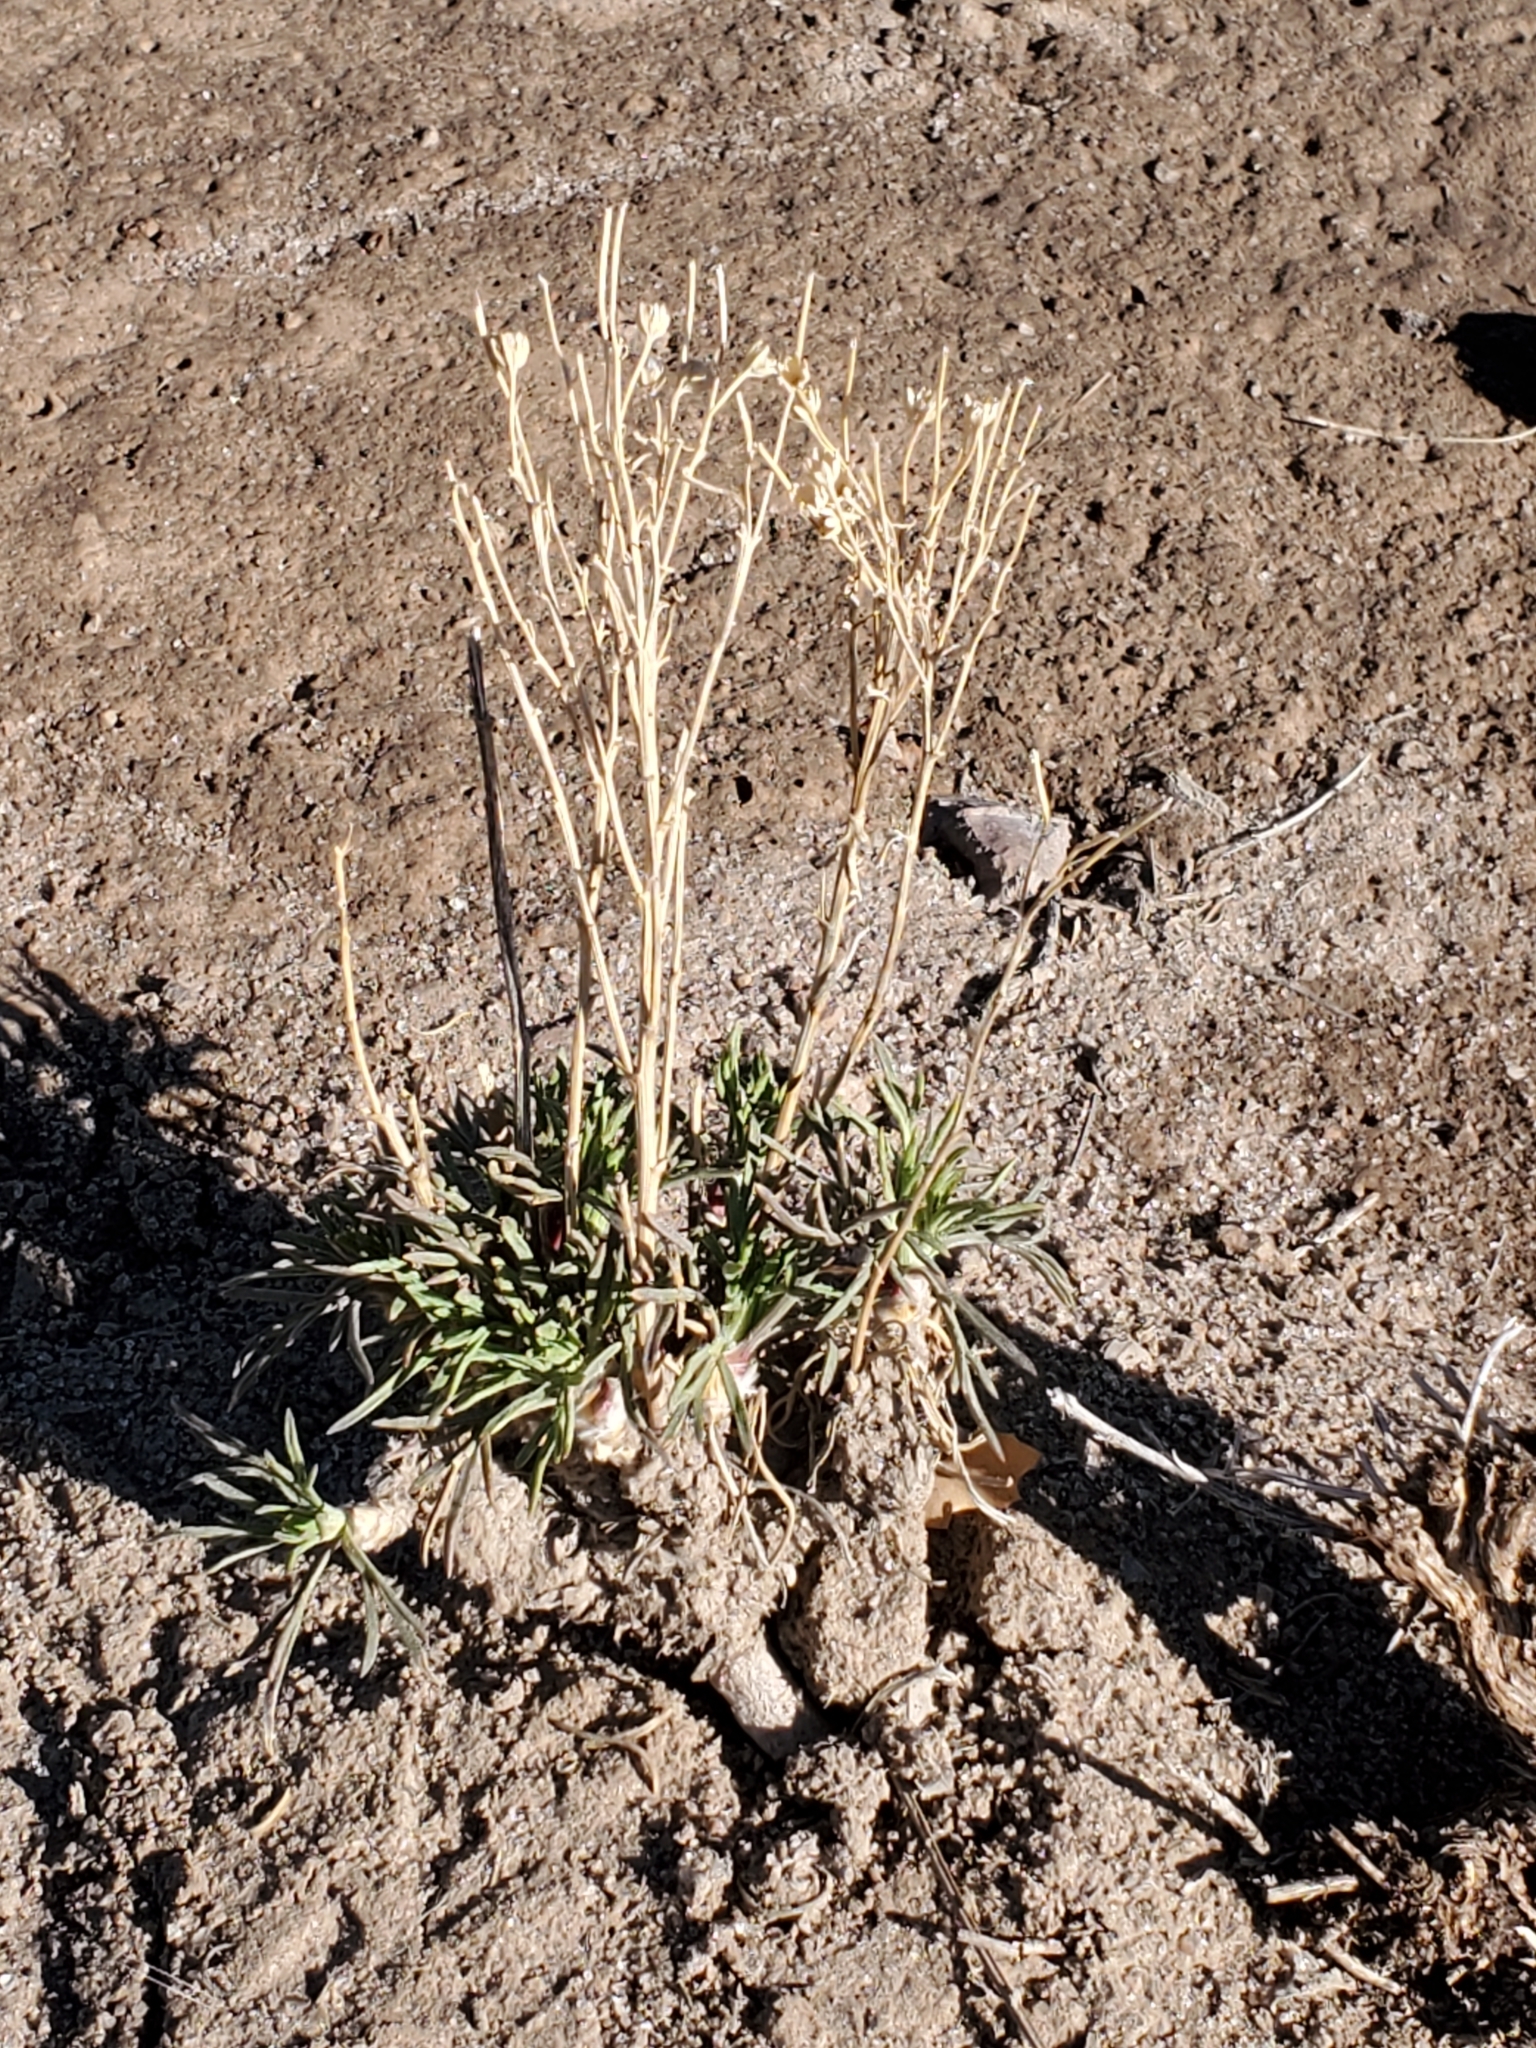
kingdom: Plantae
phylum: Tracheophyta
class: Magnoliopsida
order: Asterales
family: Asteraceae
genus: Hymenoxys
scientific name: Hymenoxys richardsonii
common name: Pingue rubberweed
